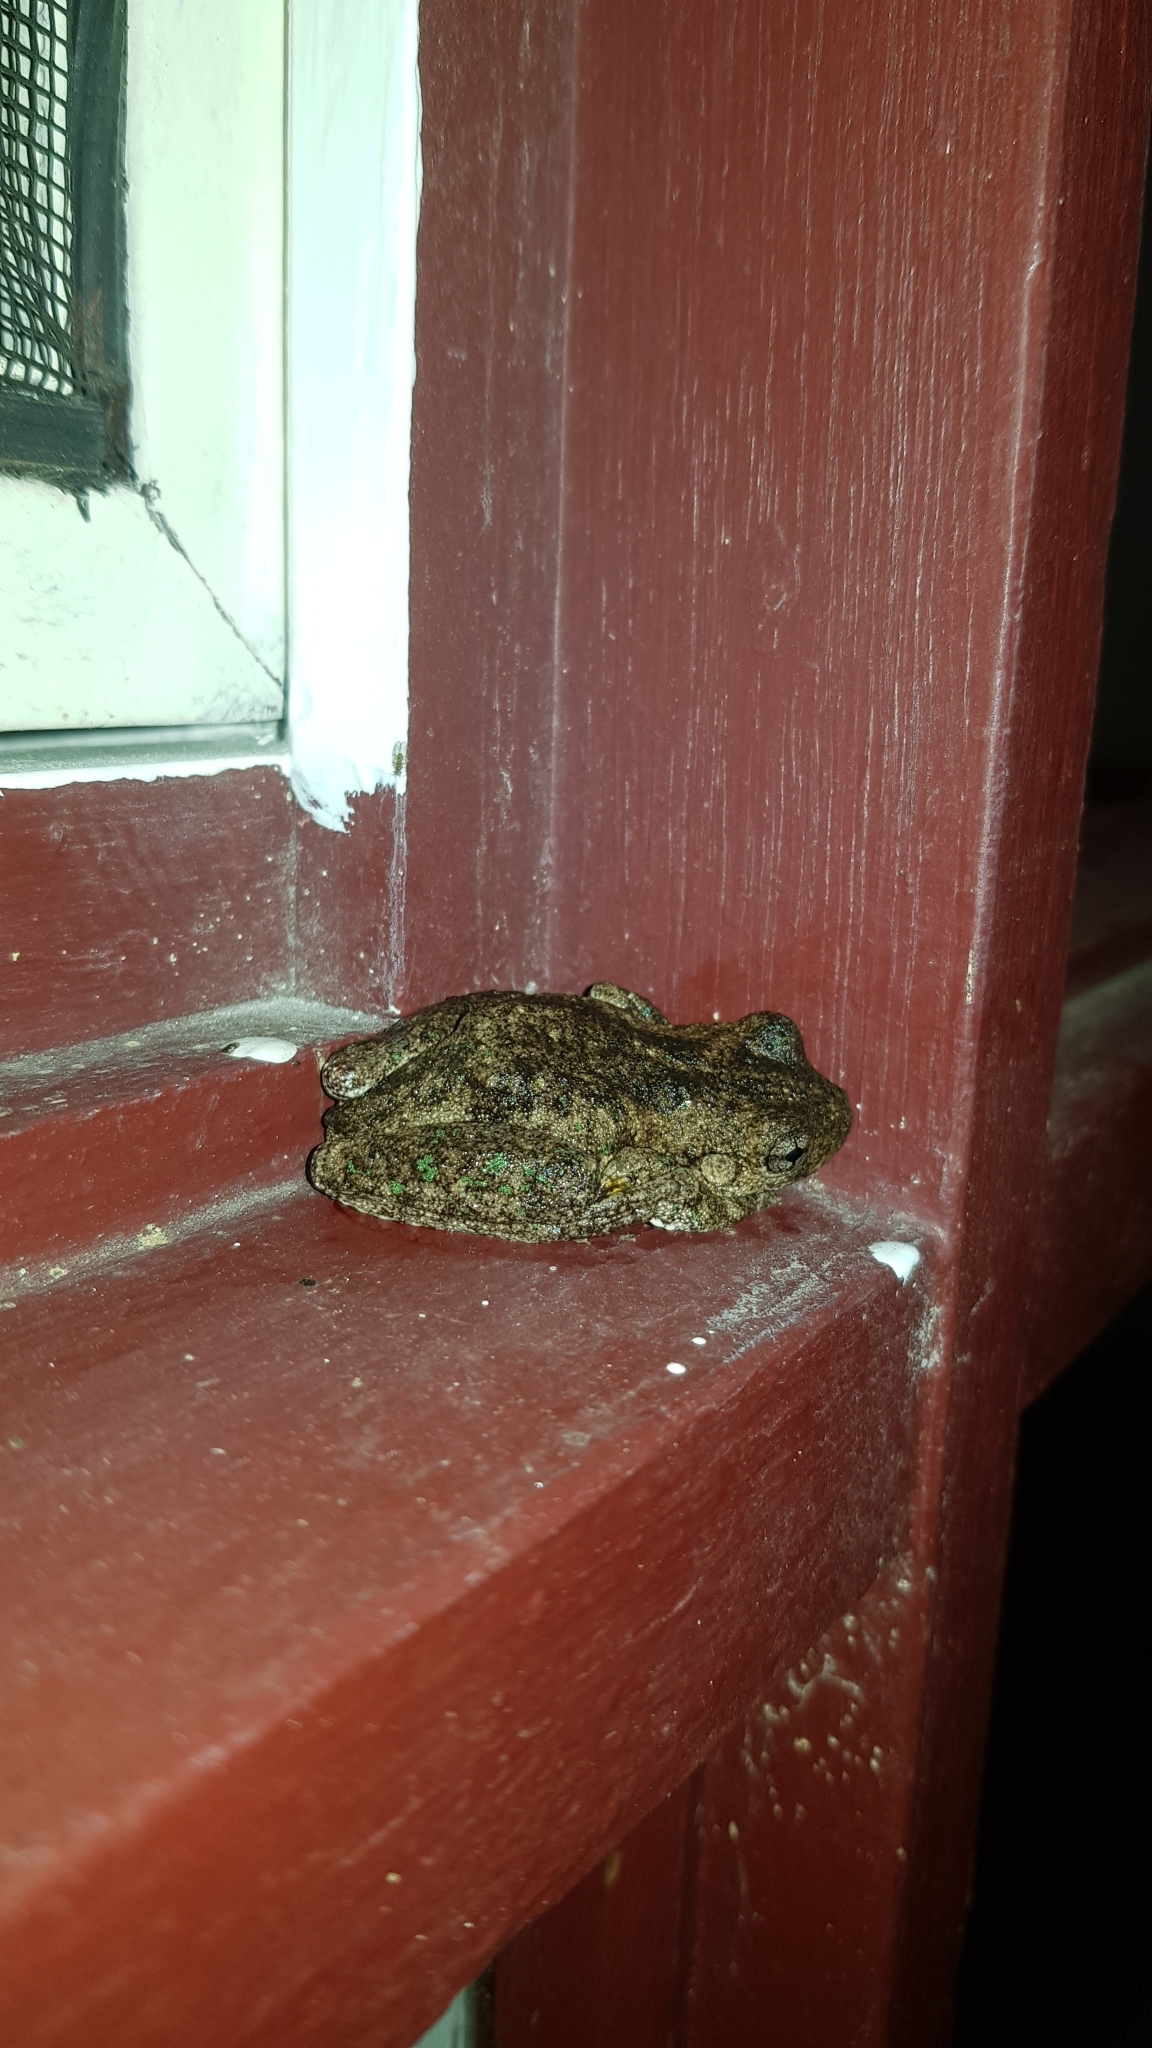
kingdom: Animalia
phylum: Chordata
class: Amphibia
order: Anura
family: Pelodryadidae
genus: Litoria
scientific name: Litoria peronii
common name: Emerald spotted treefrog
